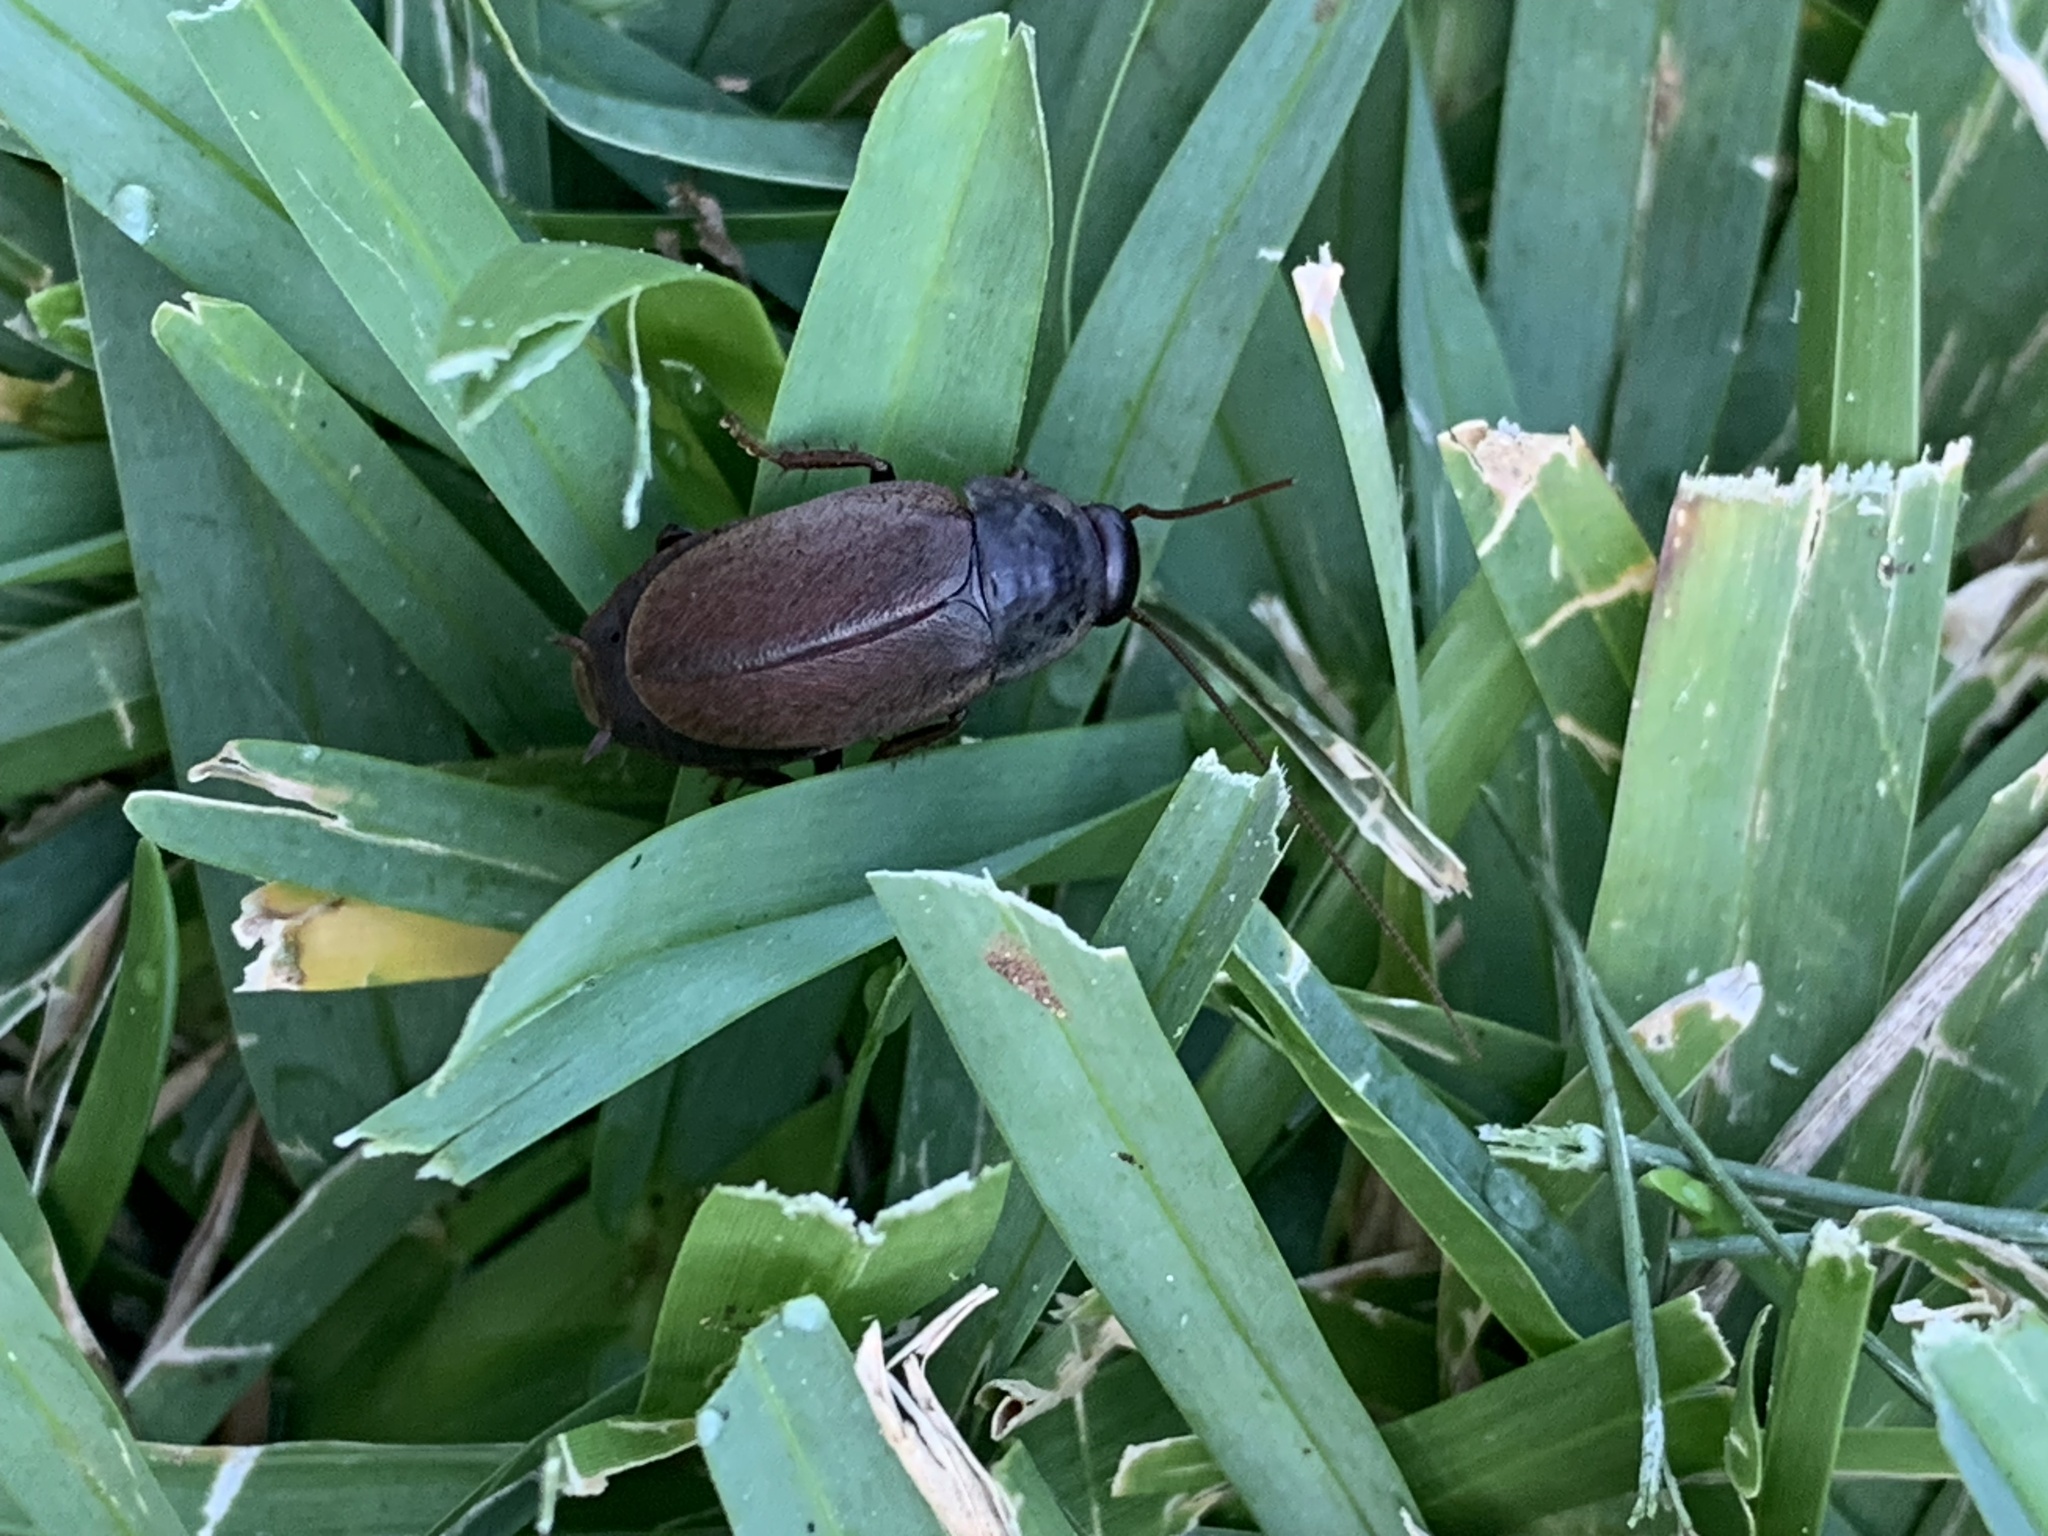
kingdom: Animalia
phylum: Arthropoda
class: Insecta
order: Blattodea
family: Blaberidae
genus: Diploptera
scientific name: Diploptera punctata
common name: Pacific beetle cockroach
